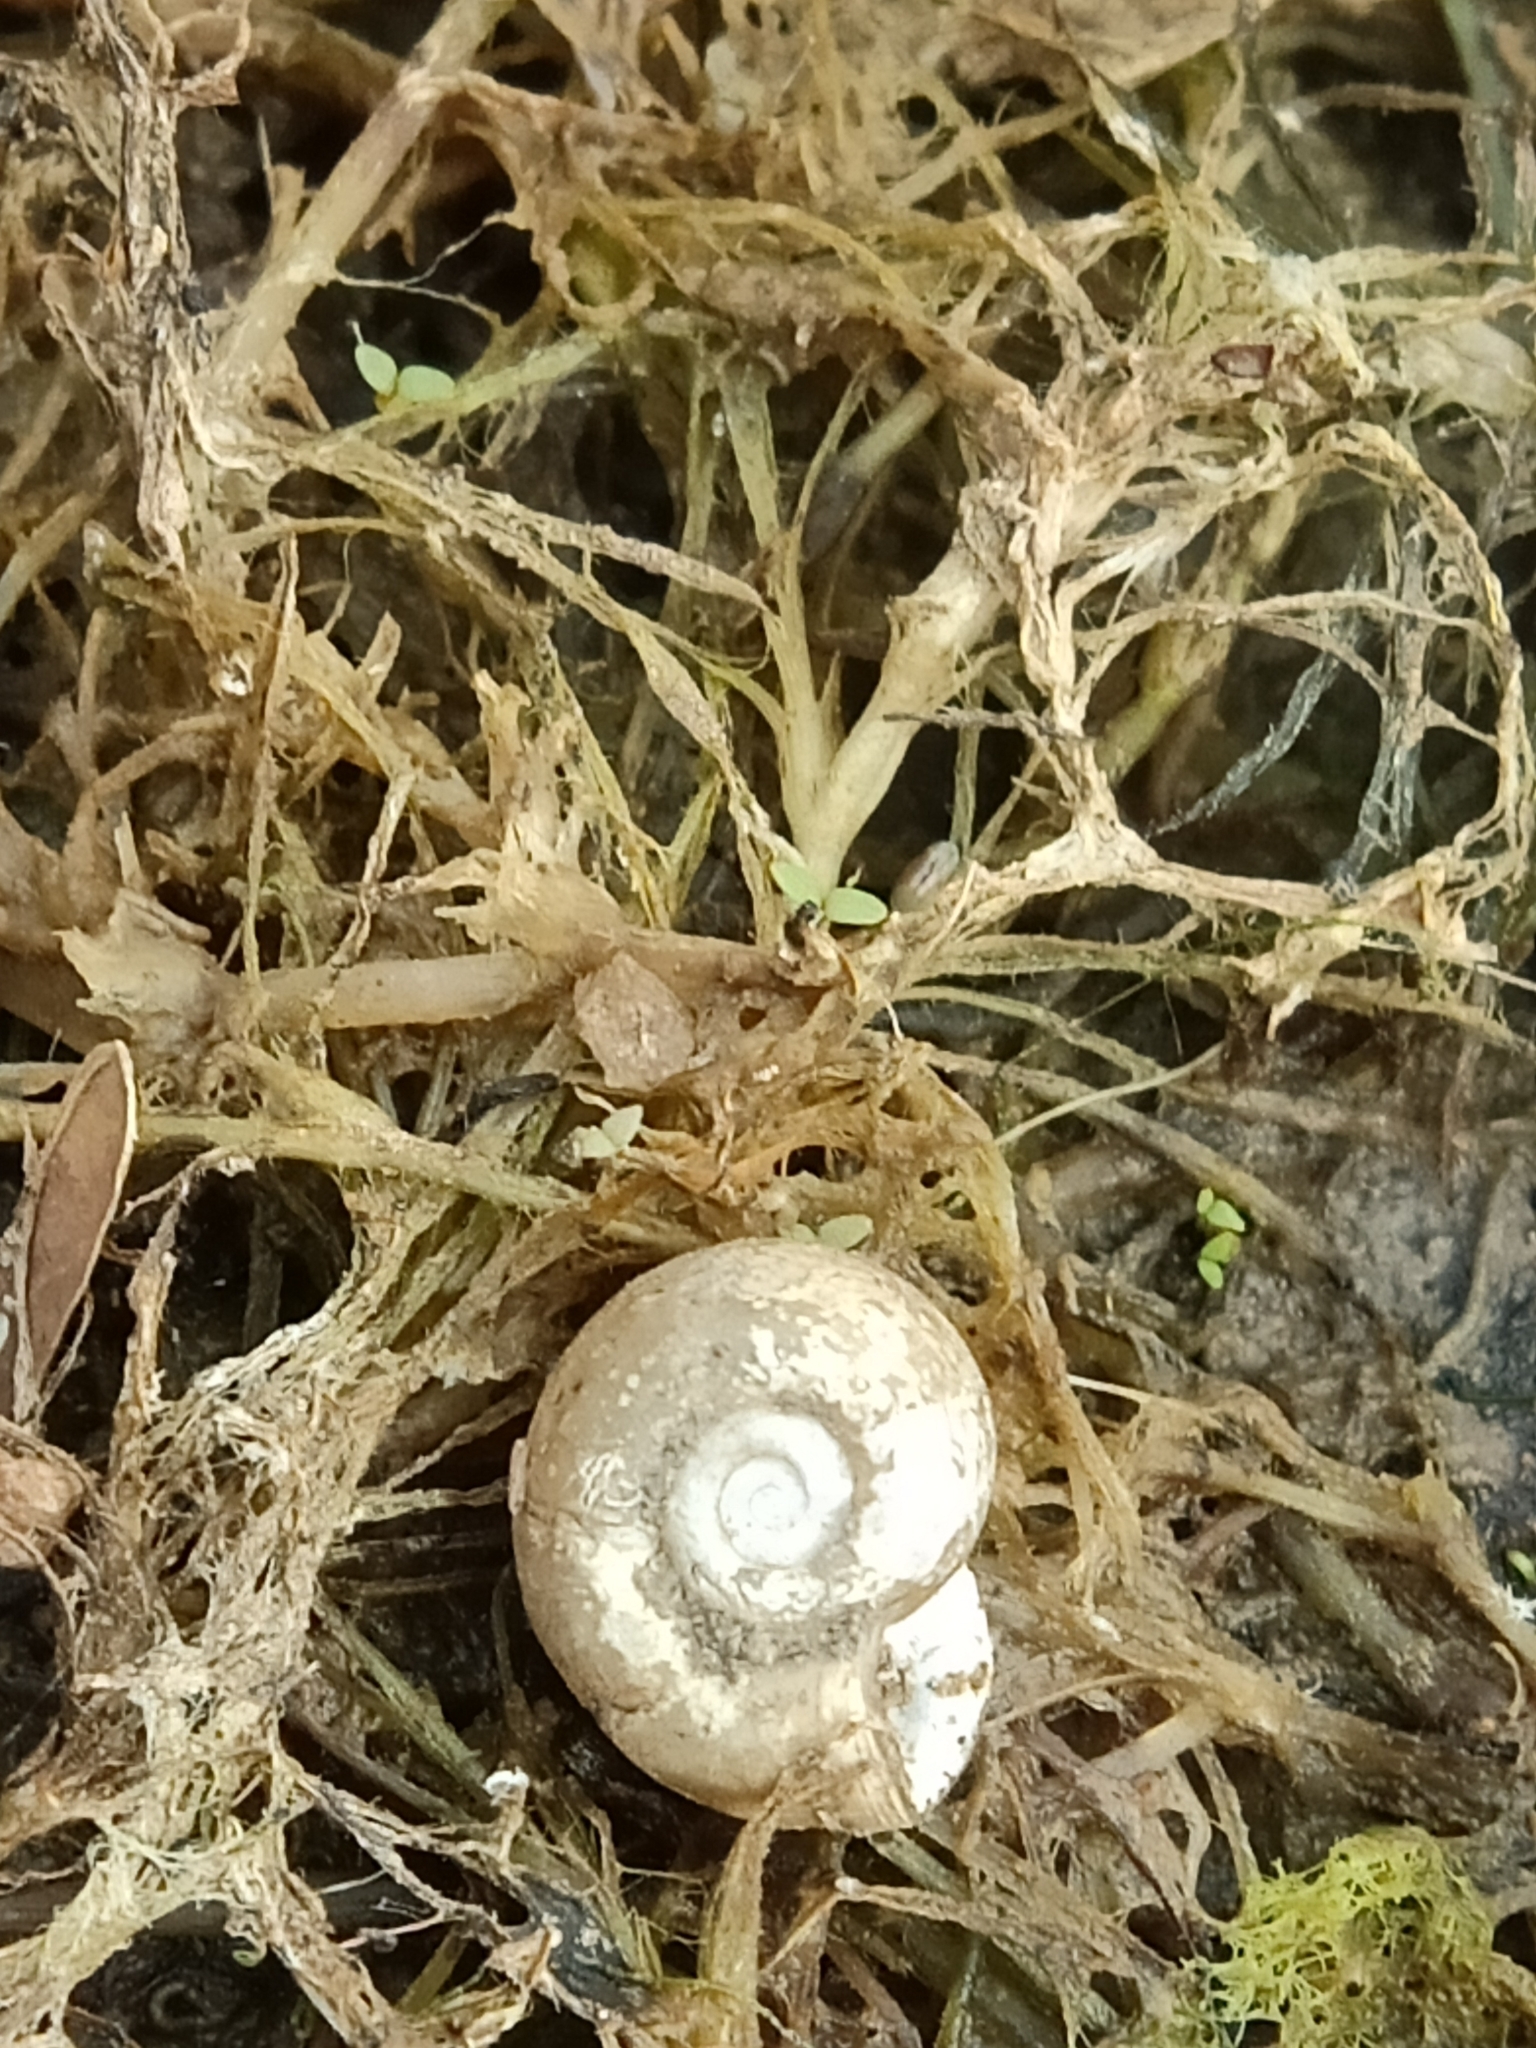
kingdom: Animalia
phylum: Mollusca
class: Gastropoda
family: Bulinidae
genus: Indoplanorbis
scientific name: Indoplanorbis exustus
